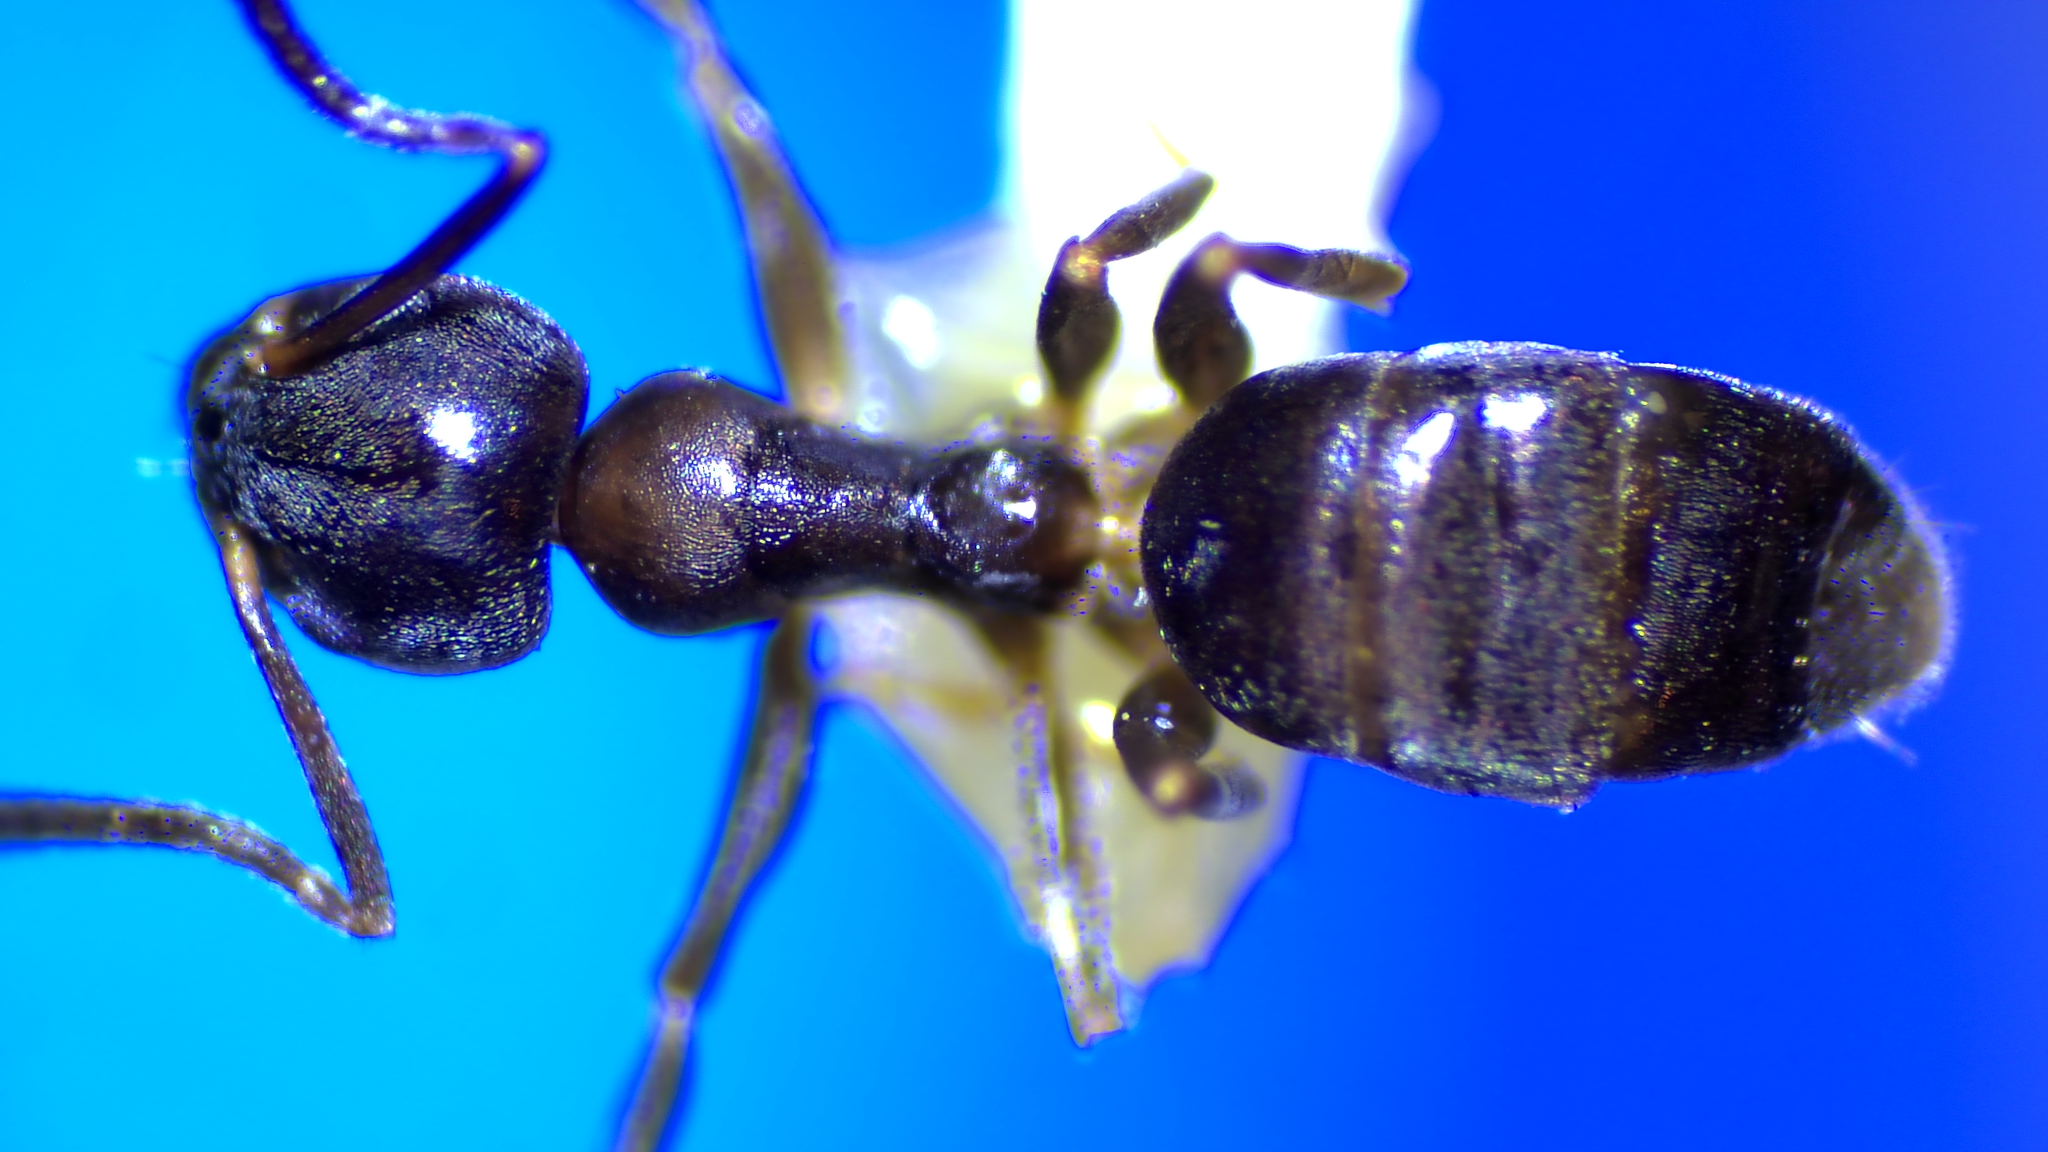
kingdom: Animalia
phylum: Arthropoda
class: Insecta
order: Hymenoptera
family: Formicidae
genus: Tapinoma
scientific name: Tapinoma sessile
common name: Odorous house ant
